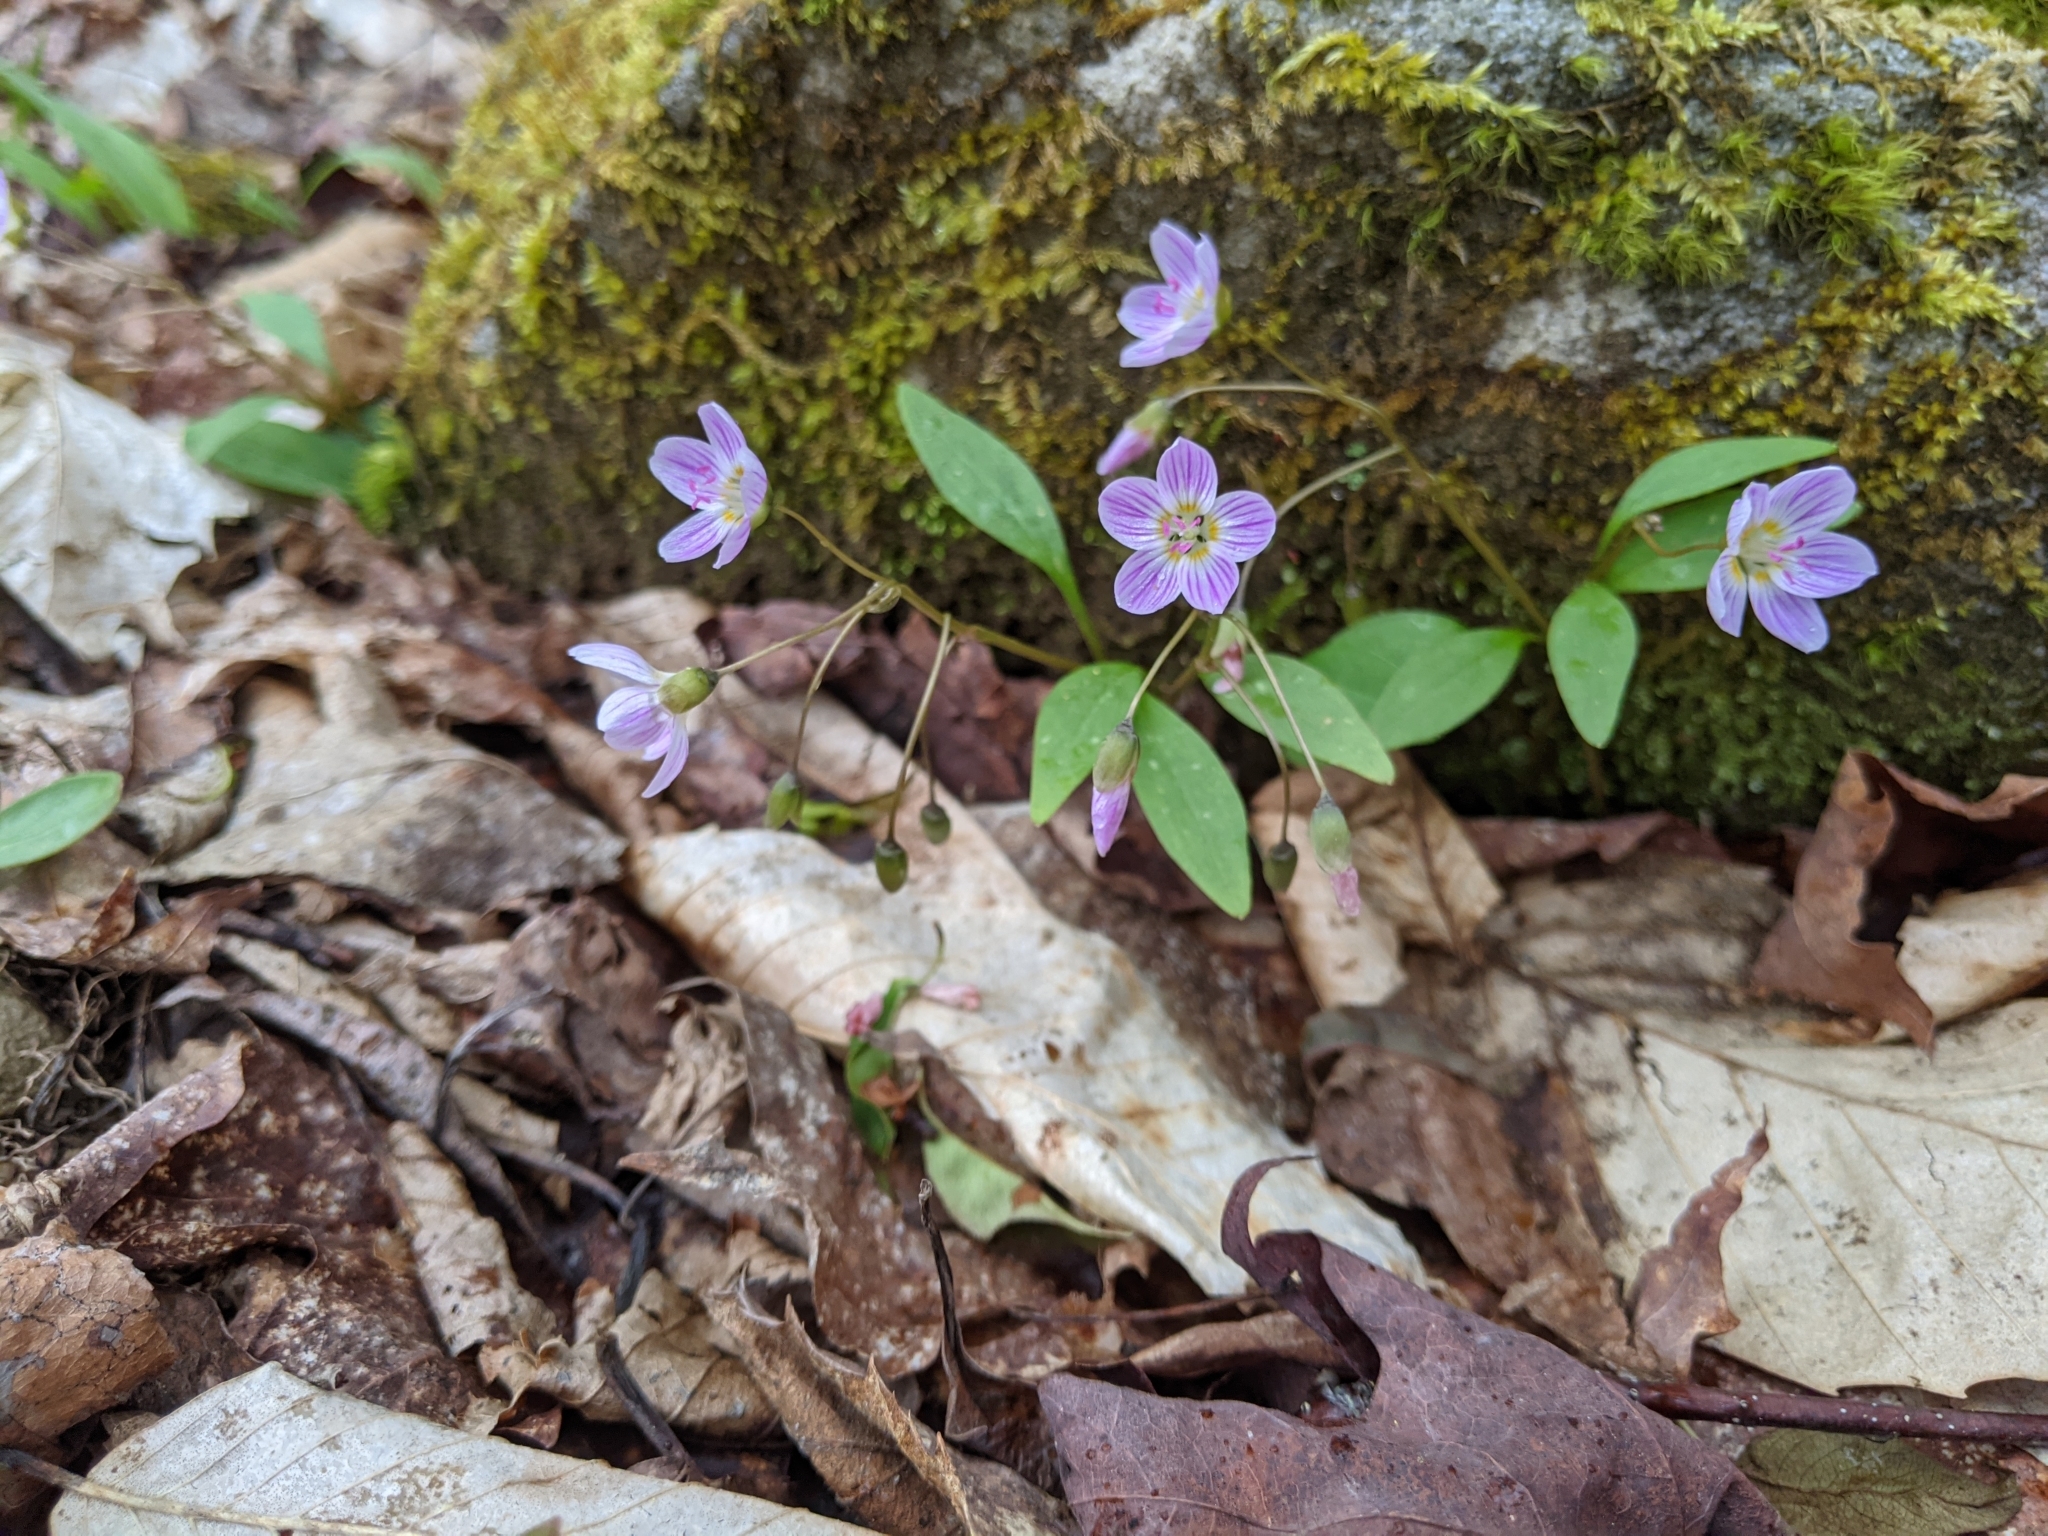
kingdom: Plantae
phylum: Tracheophyta
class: Magnoliopsida
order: Caryophyllales
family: Montiaceae
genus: Claytonia
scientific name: Claytonia caroliniana
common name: Carolina spring beauty
